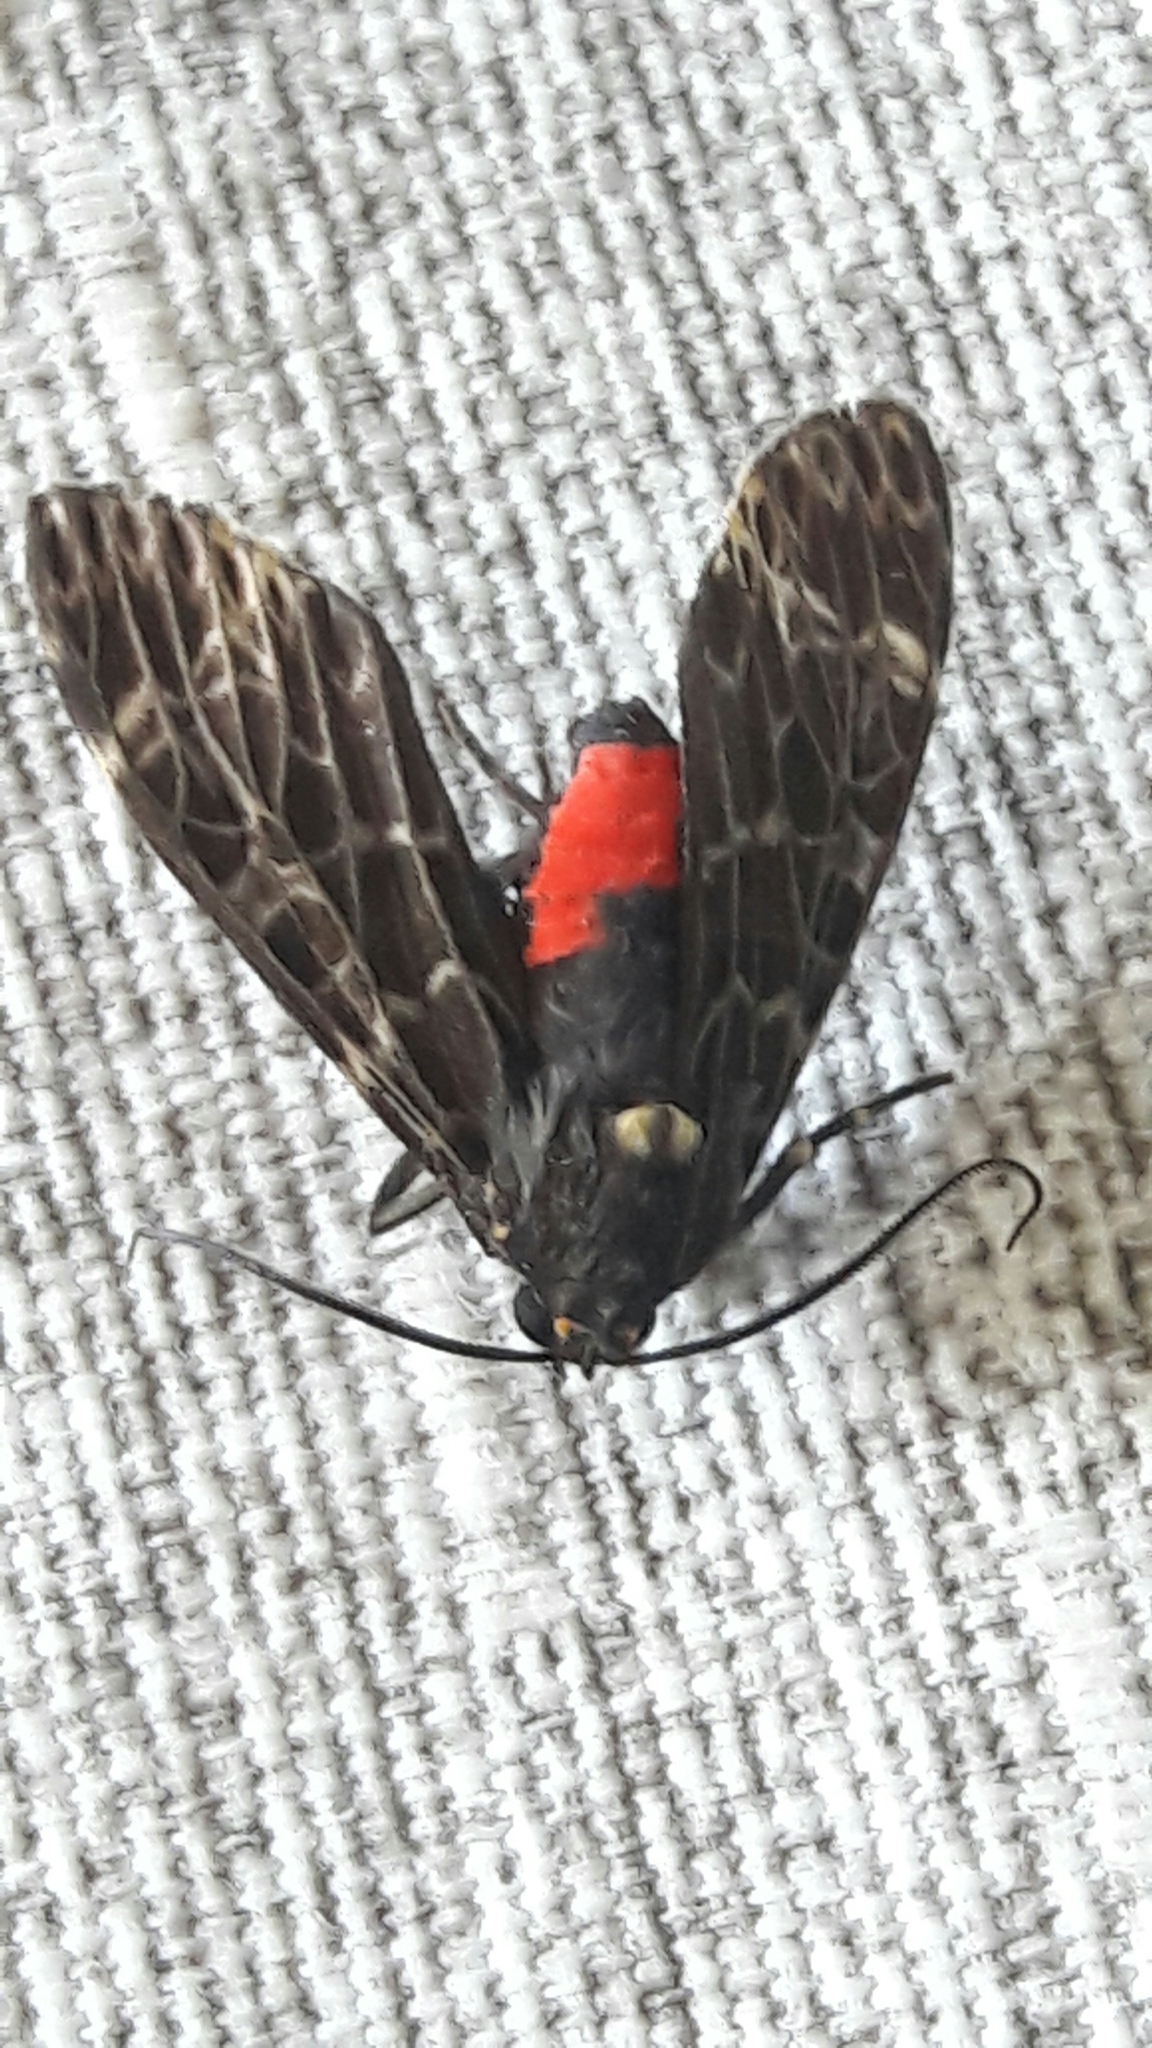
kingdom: Animalia
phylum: Arthropoda
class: Insecta
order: Lepidoptera
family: Erebidae
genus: Eucereon
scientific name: Eucereon sylvius
